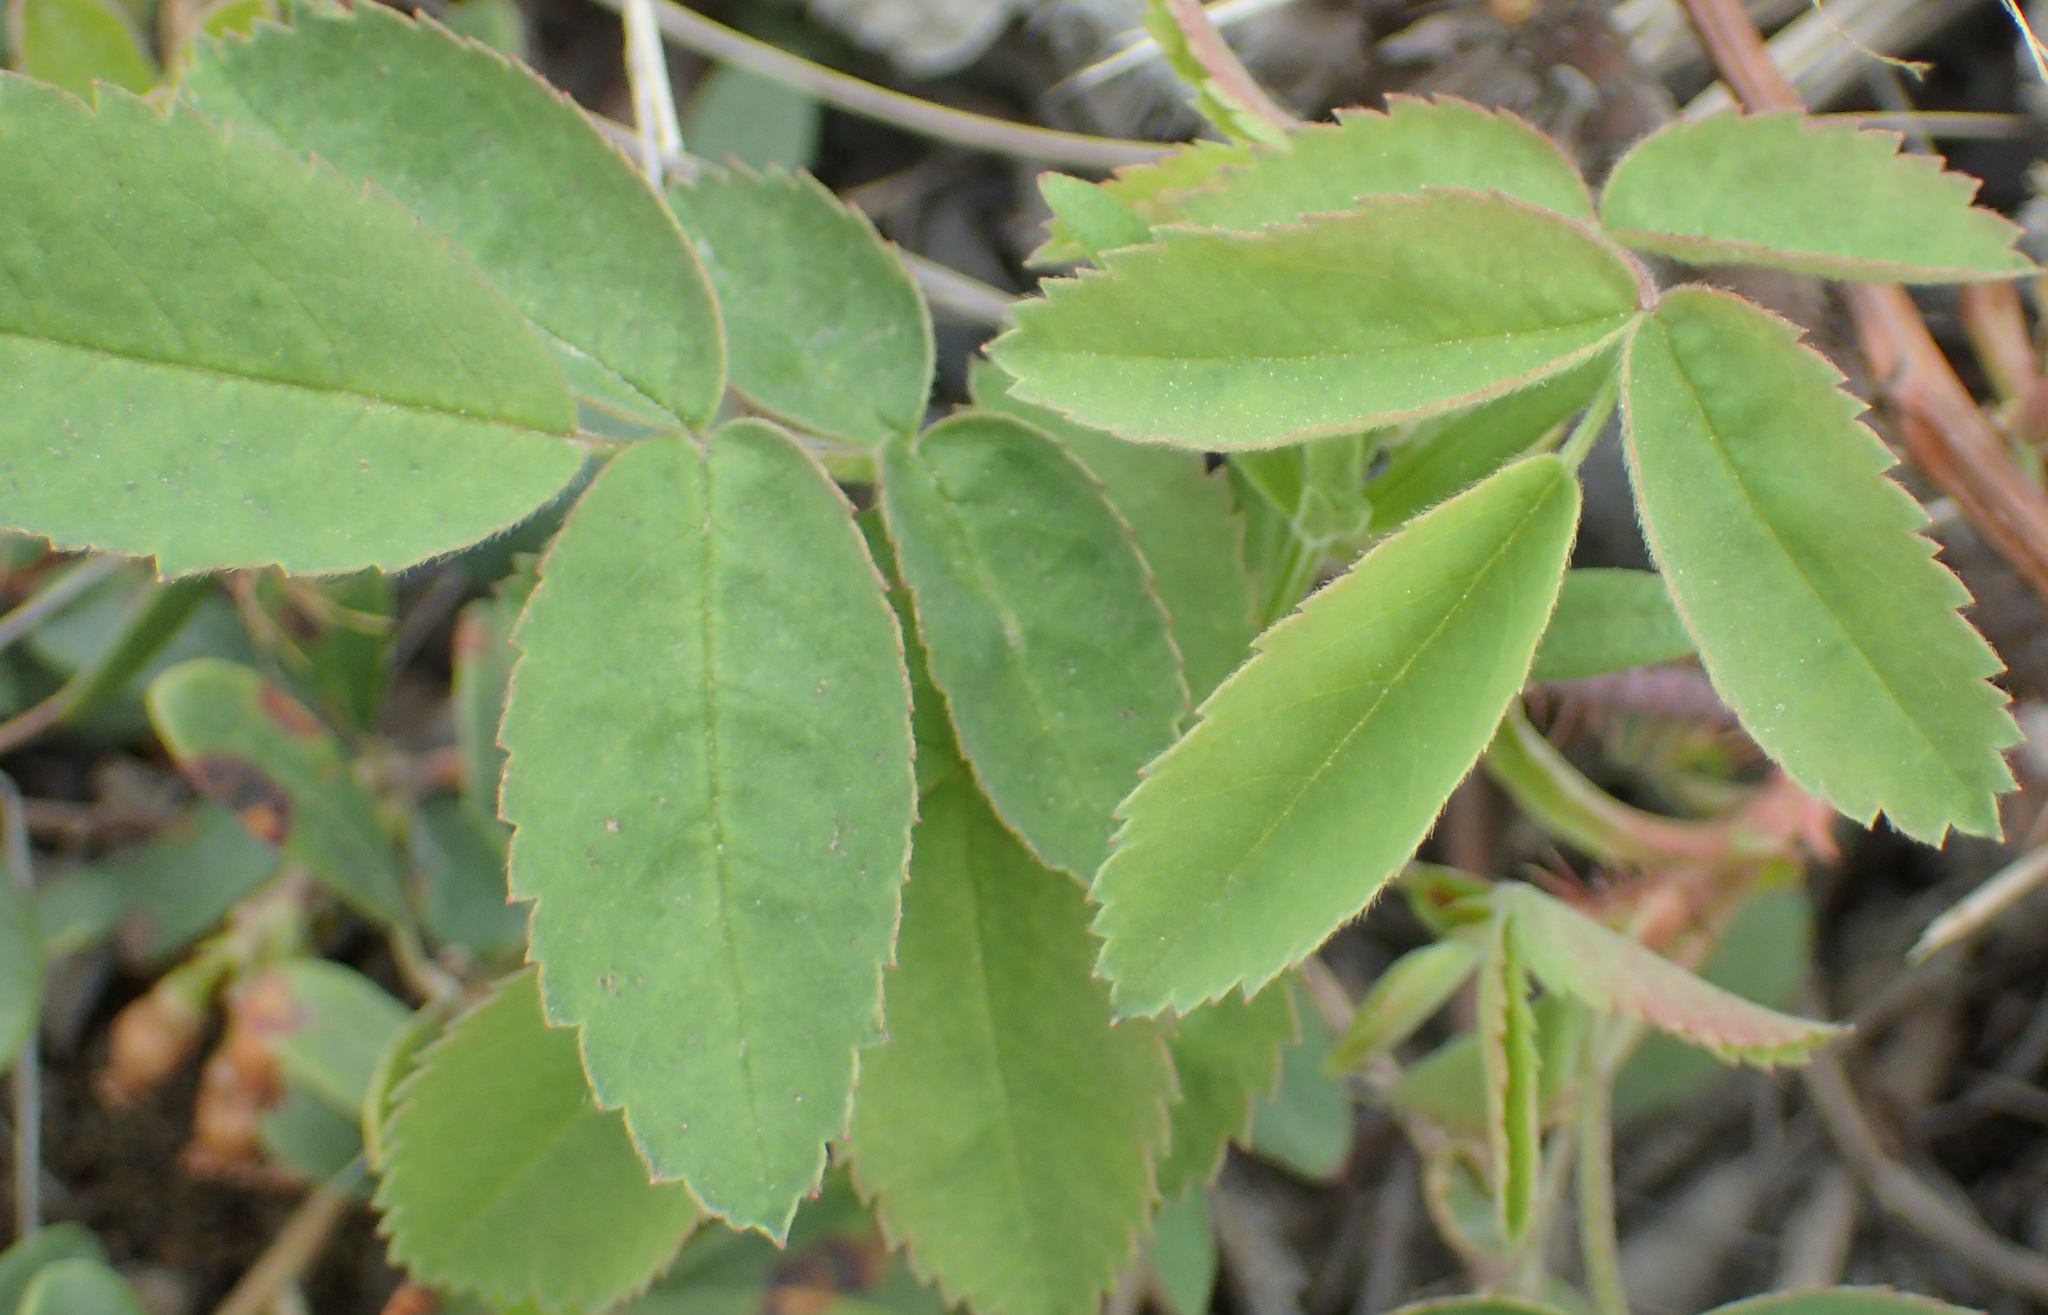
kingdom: Plantae
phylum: Tracheophyta
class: Magnoliopsida
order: Rosales
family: Rosaceae
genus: Rosa
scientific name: Rosa acicularis
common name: Prickly rose
